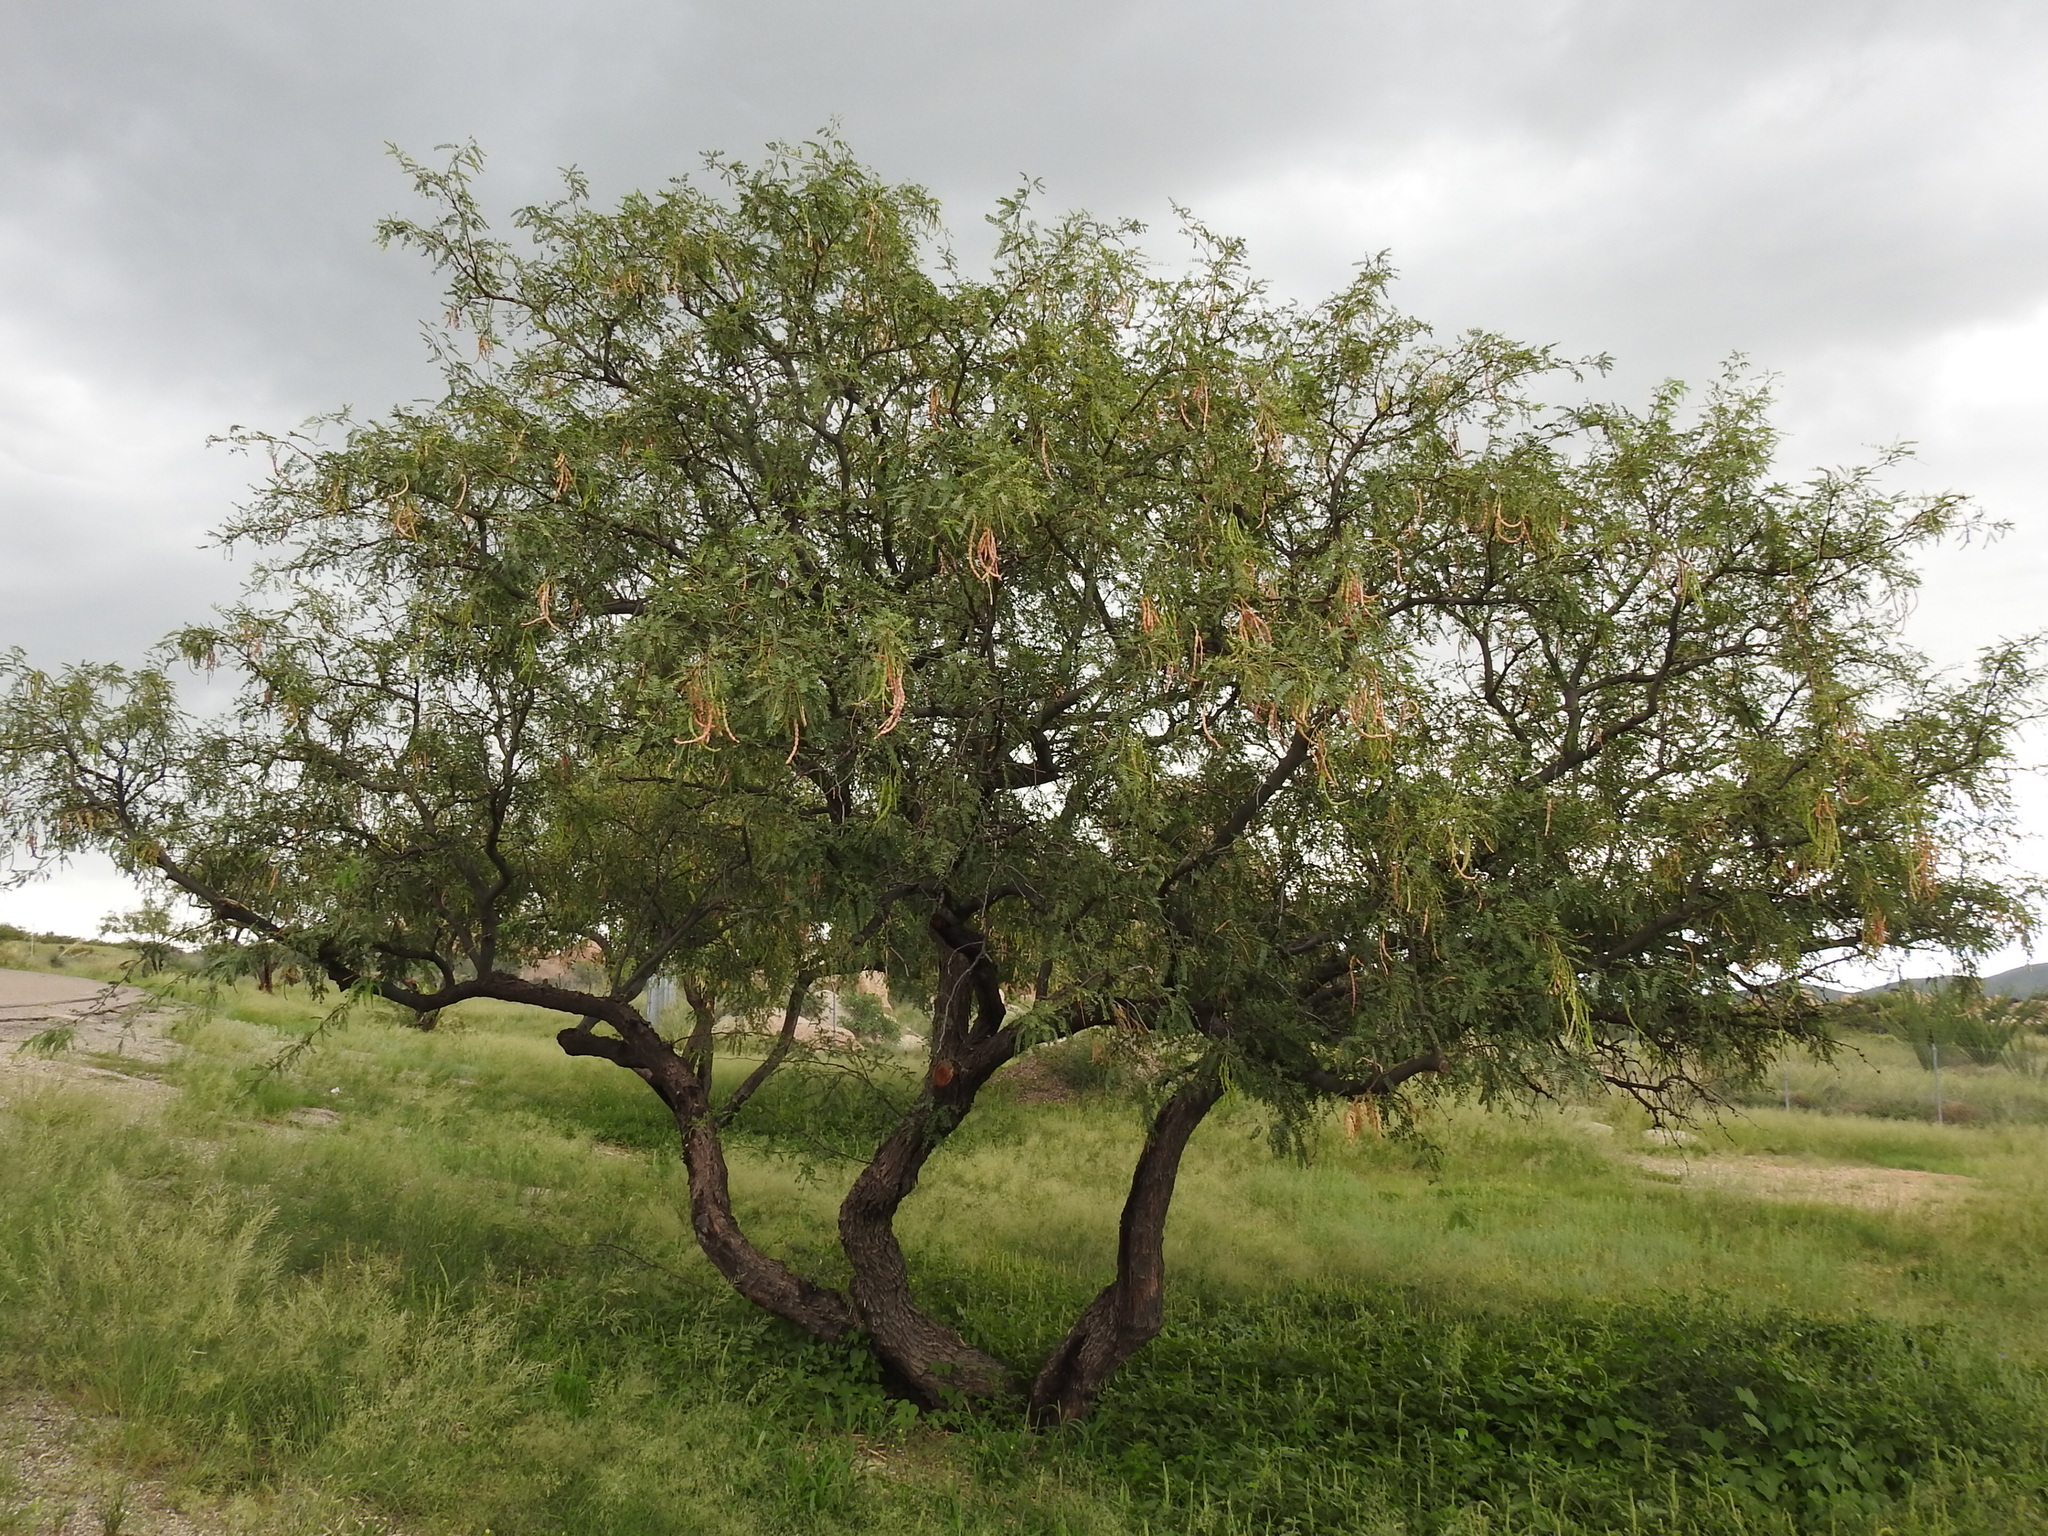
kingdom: Plantae
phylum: Tracheophyta
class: Magnoliopsida
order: Fabales
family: Fabaceae
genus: Prosopis
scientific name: Prosopis velutina
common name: Velvet mesquite
